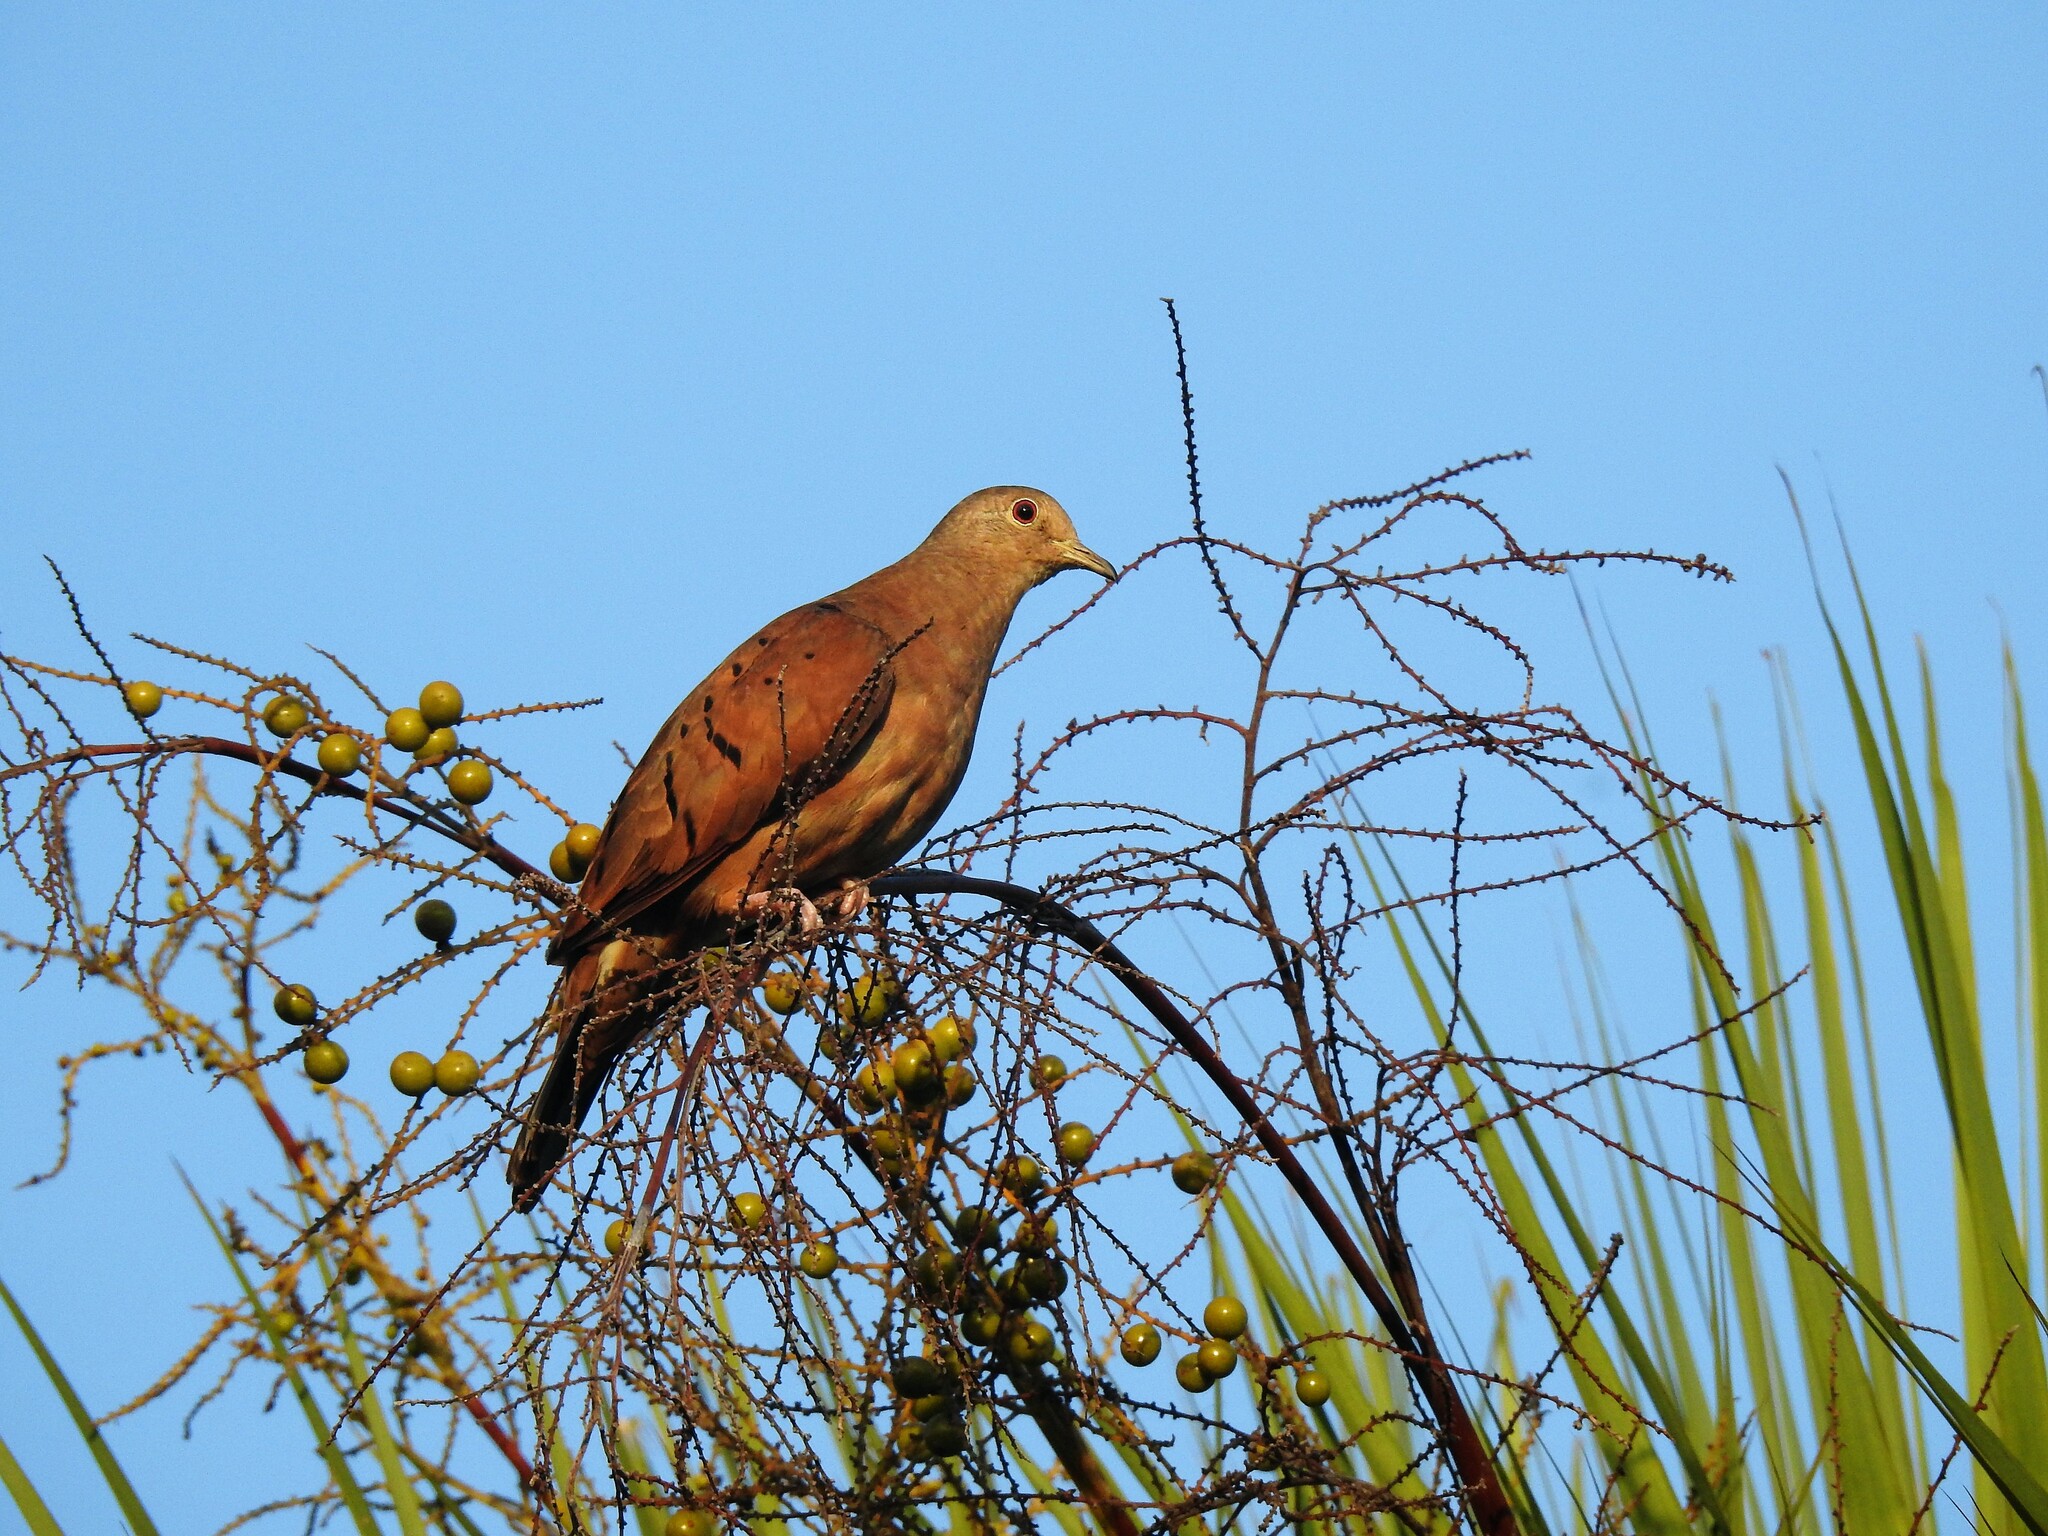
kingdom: Animalia
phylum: Chordata
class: Aves
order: Columbiformes
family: Columbidae
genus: Columbina
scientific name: Columbina talpacoti
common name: Ruddy ground dove
